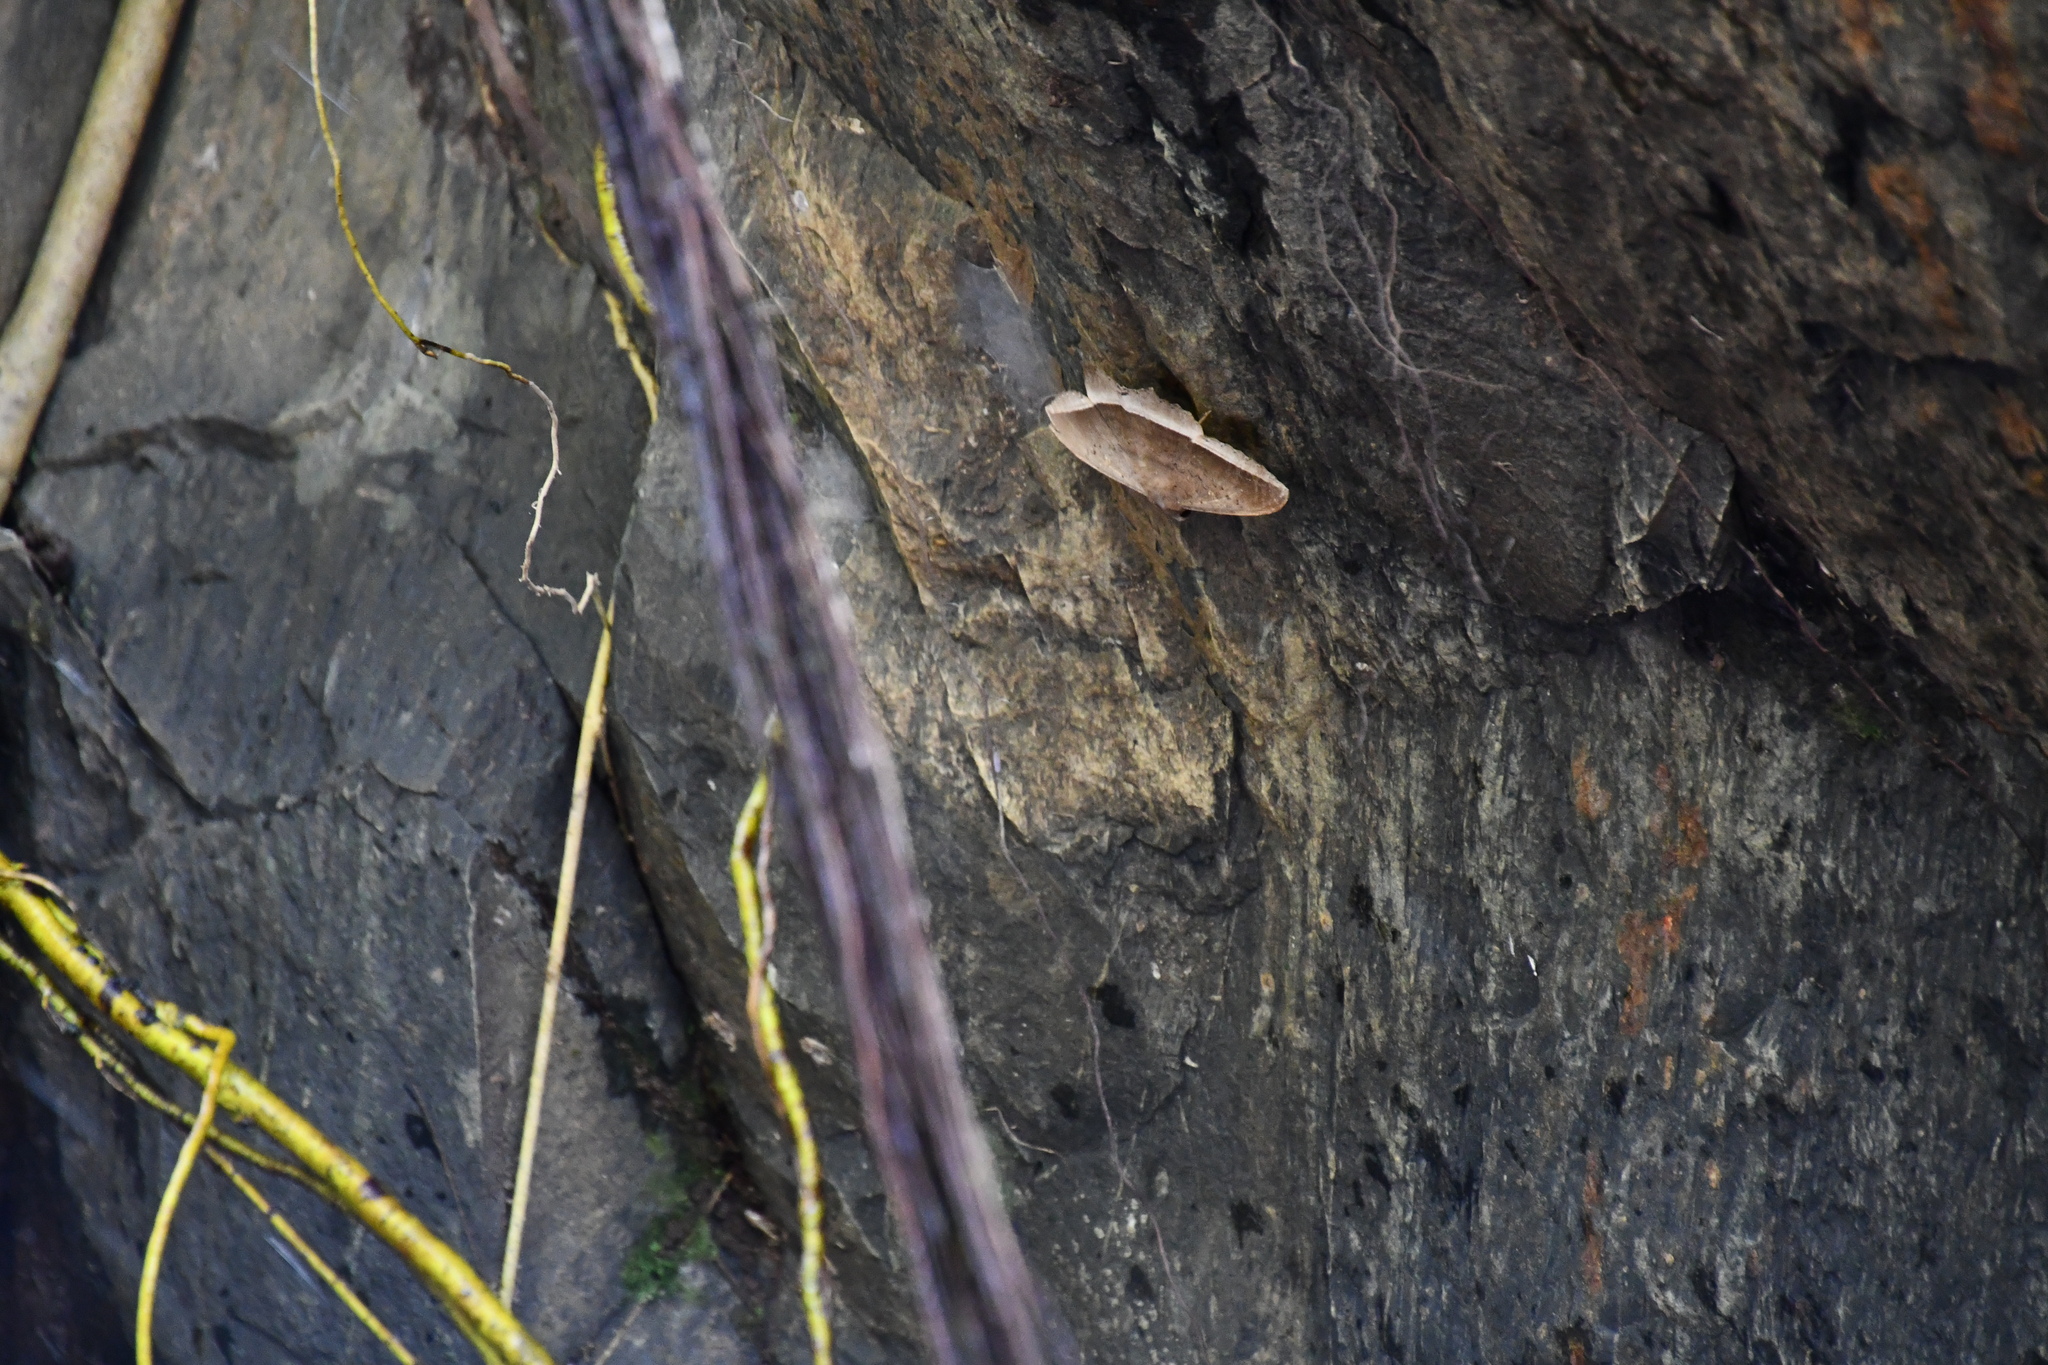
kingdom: Animalia
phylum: Arthropoda
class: Insecta
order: Lepidoptera
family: Erebidae
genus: Hulodes
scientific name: Hulodes caranea
